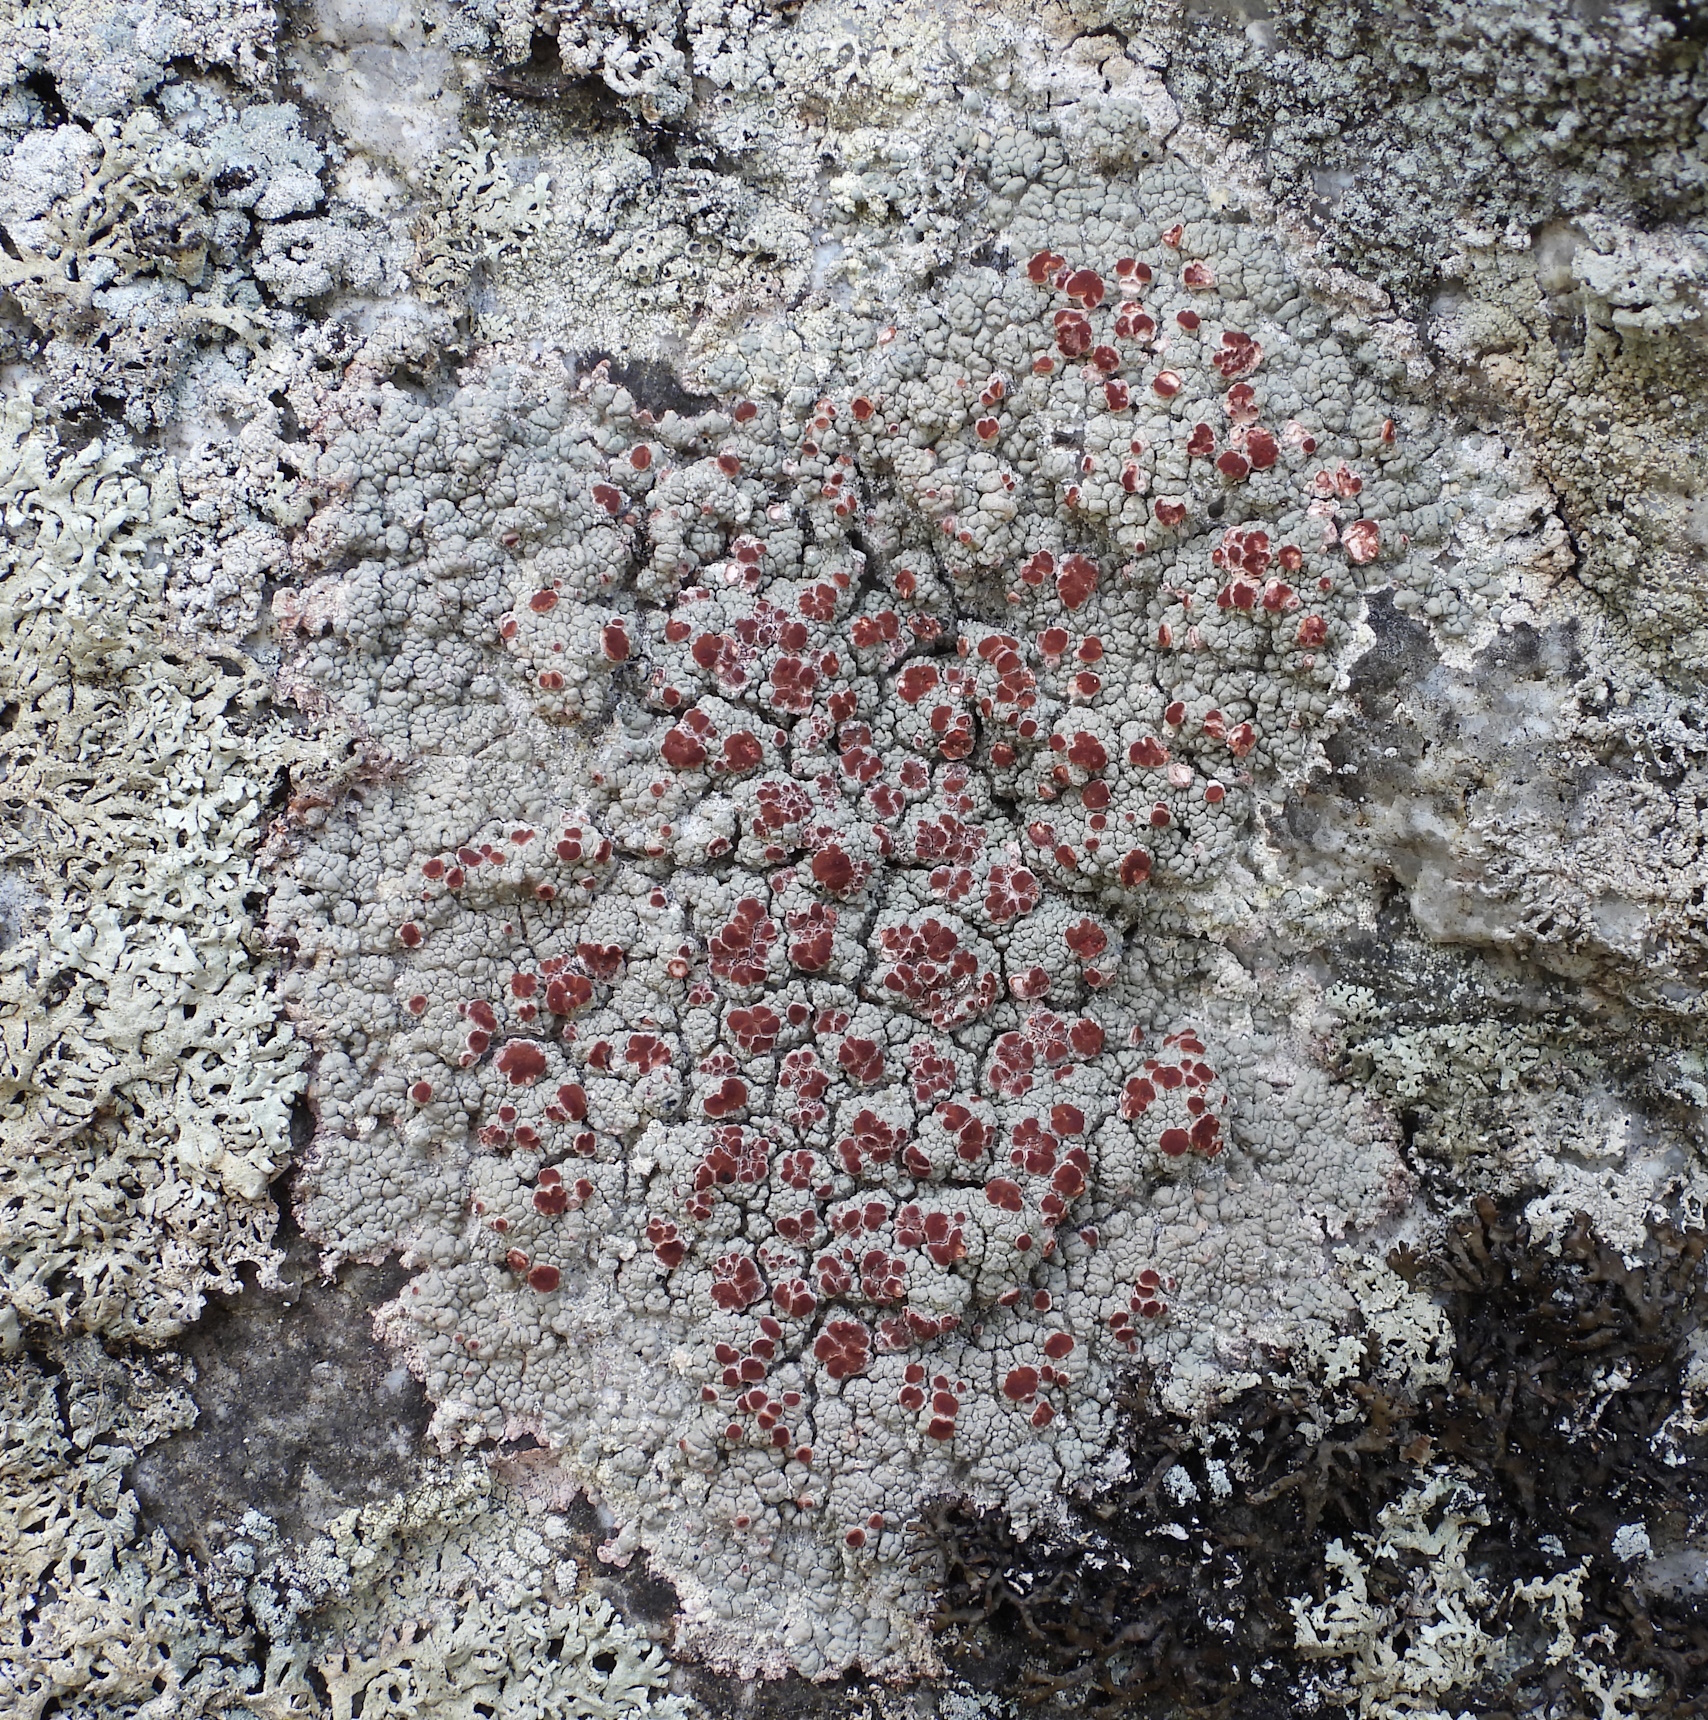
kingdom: Fungi
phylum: Ascomycota
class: Lecanoromycetes
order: Umbilicariales
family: Ophioparmaceae
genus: Ophioparma
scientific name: Ophioparma ventosa
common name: Blood-spot
